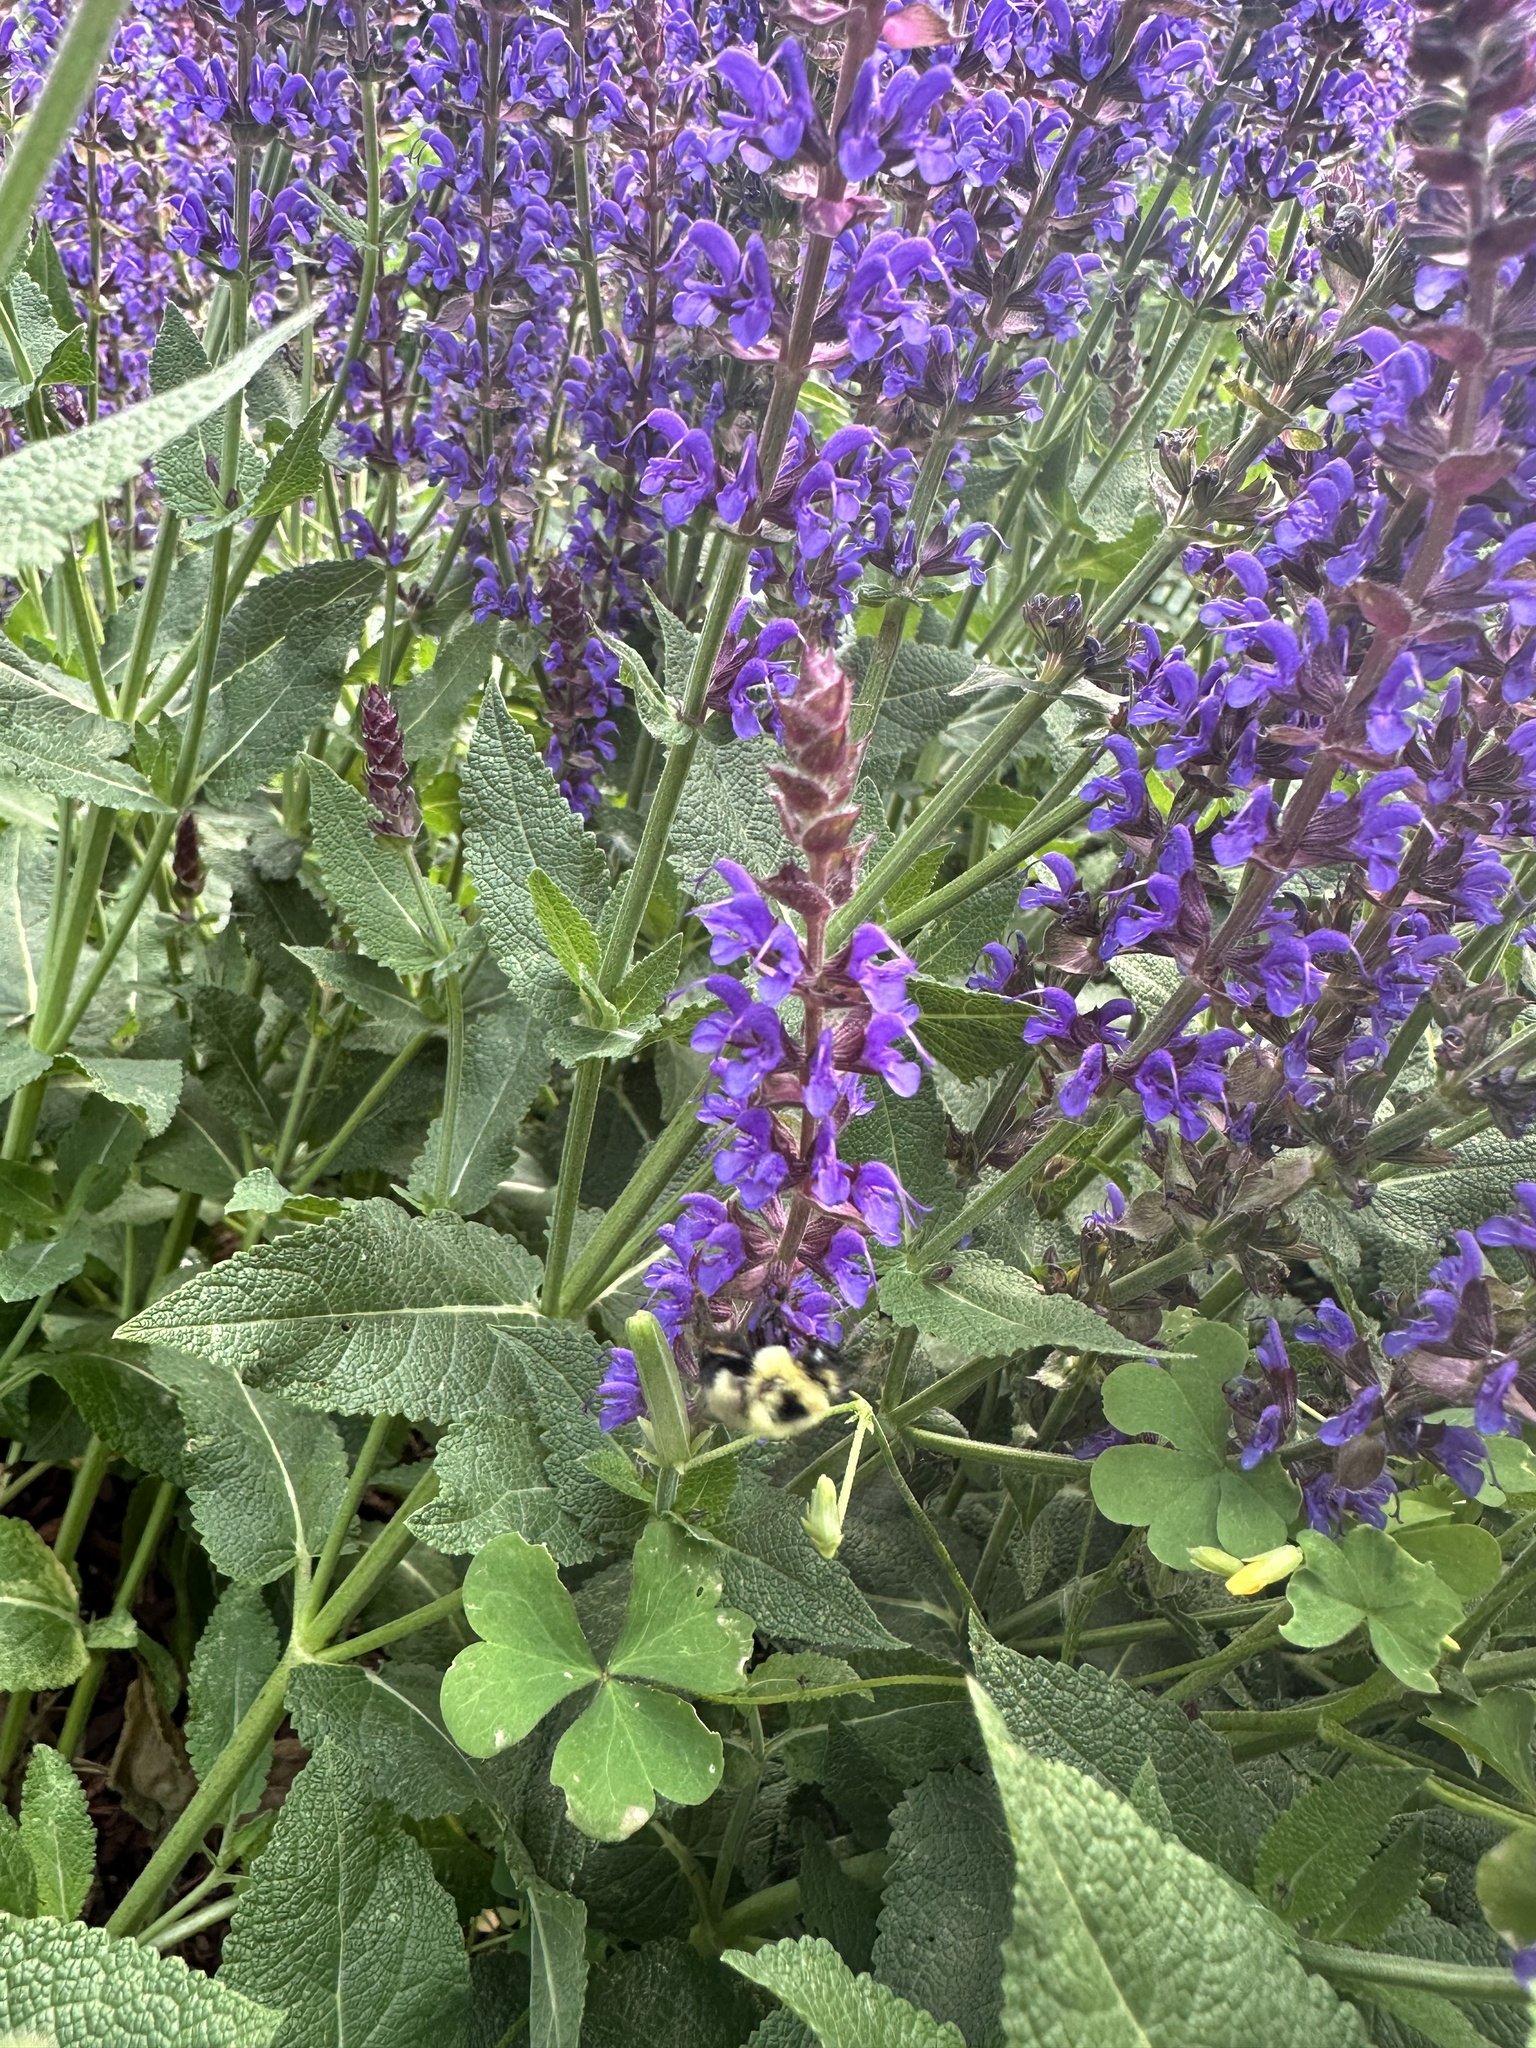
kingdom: Animalia
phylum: Arthropoda
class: Insecta
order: Hymenoptera
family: Apidae
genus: Bombus
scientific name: Bombus bimaculatus
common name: Two-spotted bumble bee
